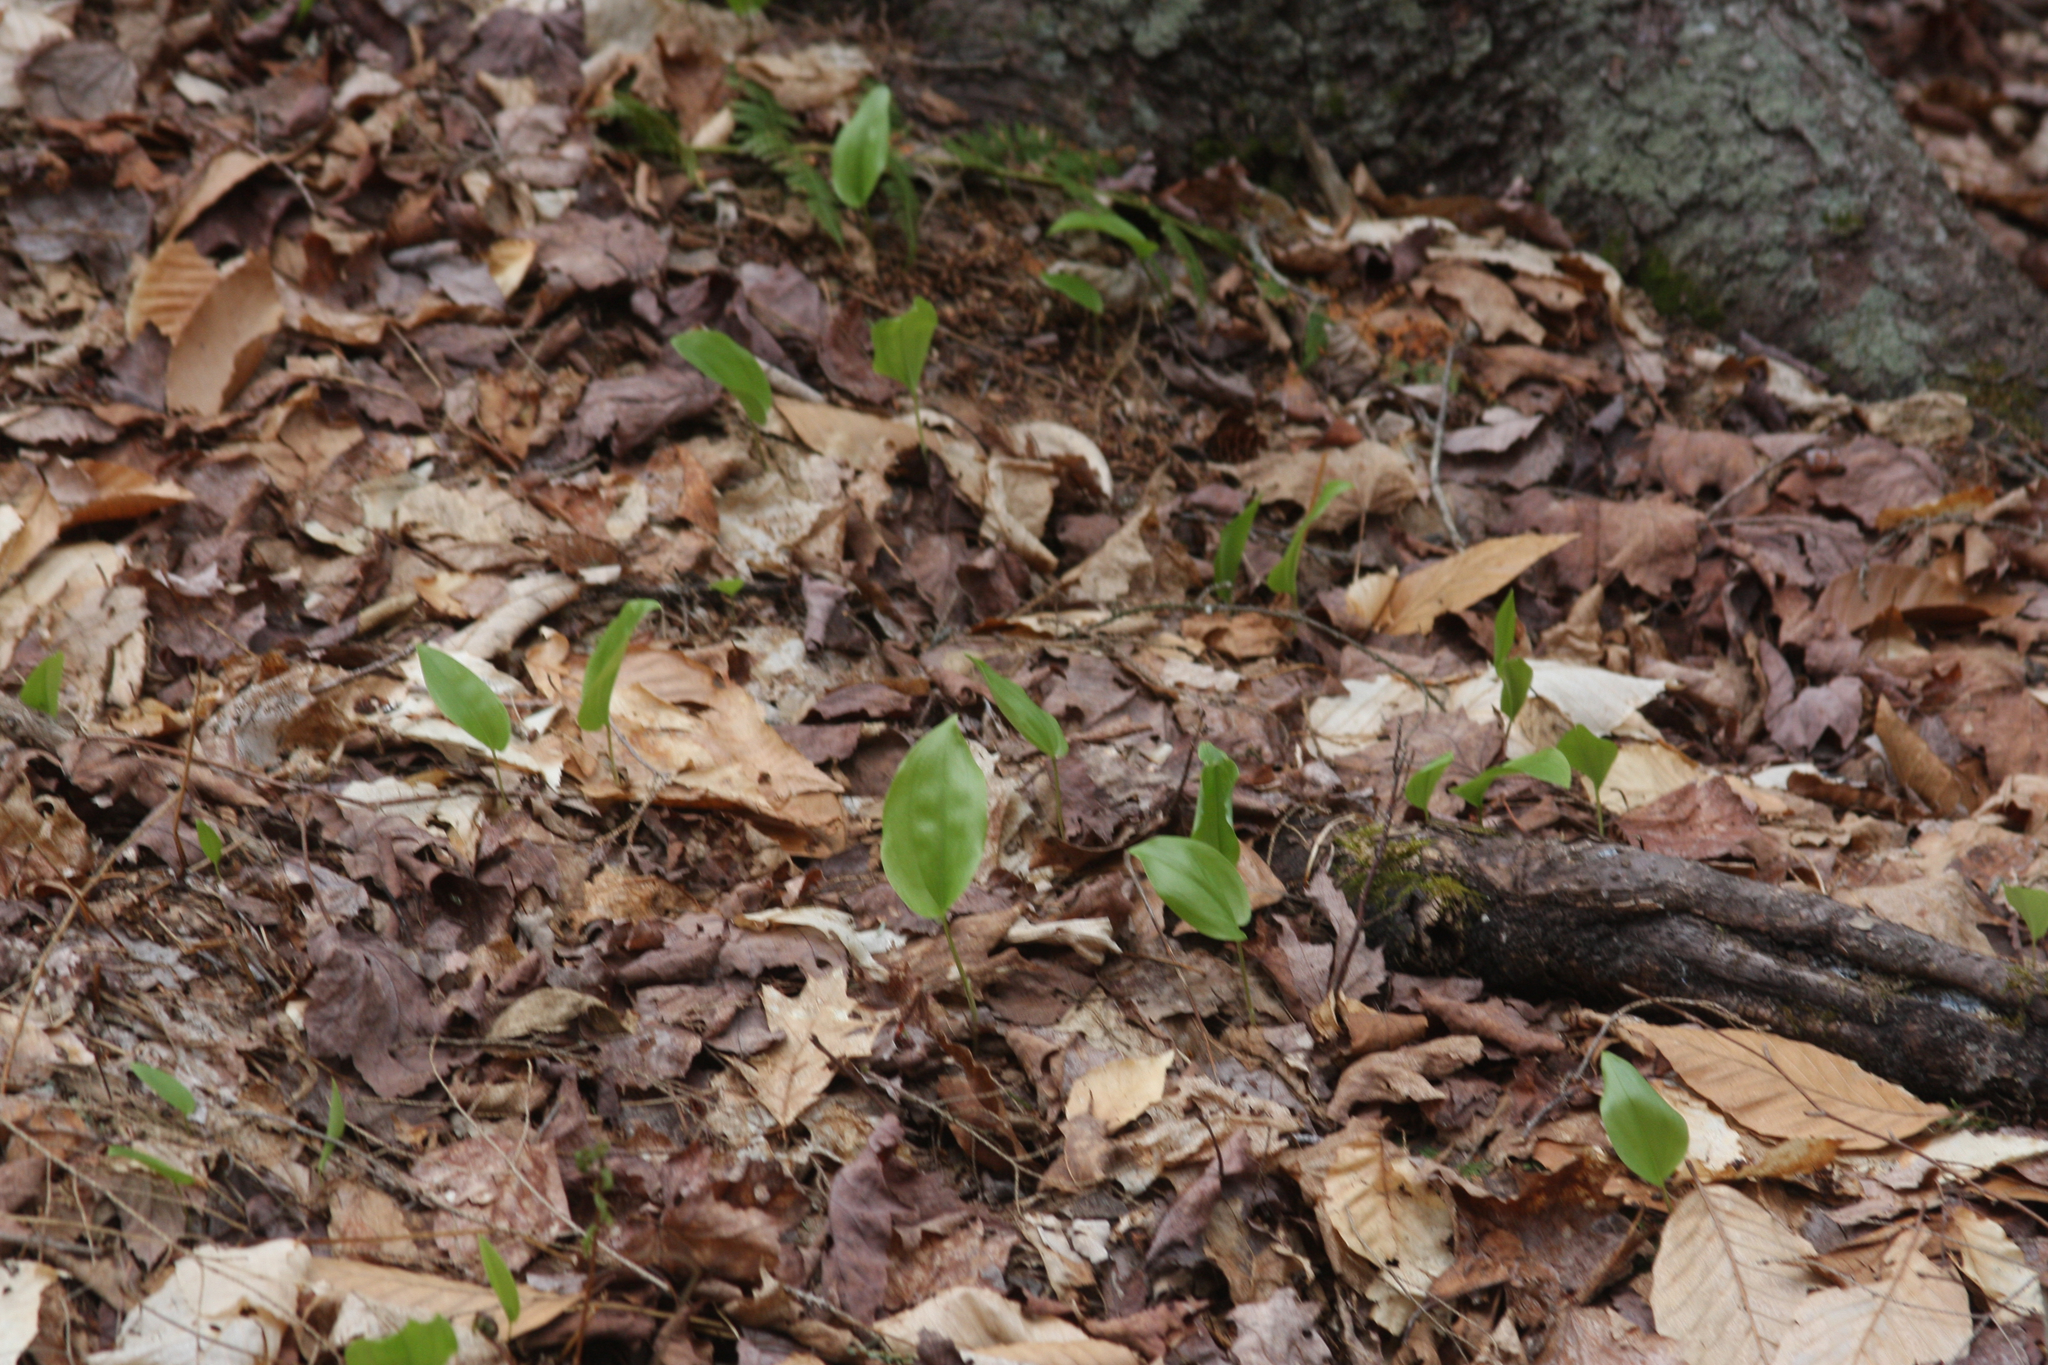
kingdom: Plantae
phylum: Tracheophyta
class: Liliopsida
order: Asparagales
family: Asparagaceae
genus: Maianthemum
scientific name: Maianthemum canadense
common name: False lily-of-the-valley
